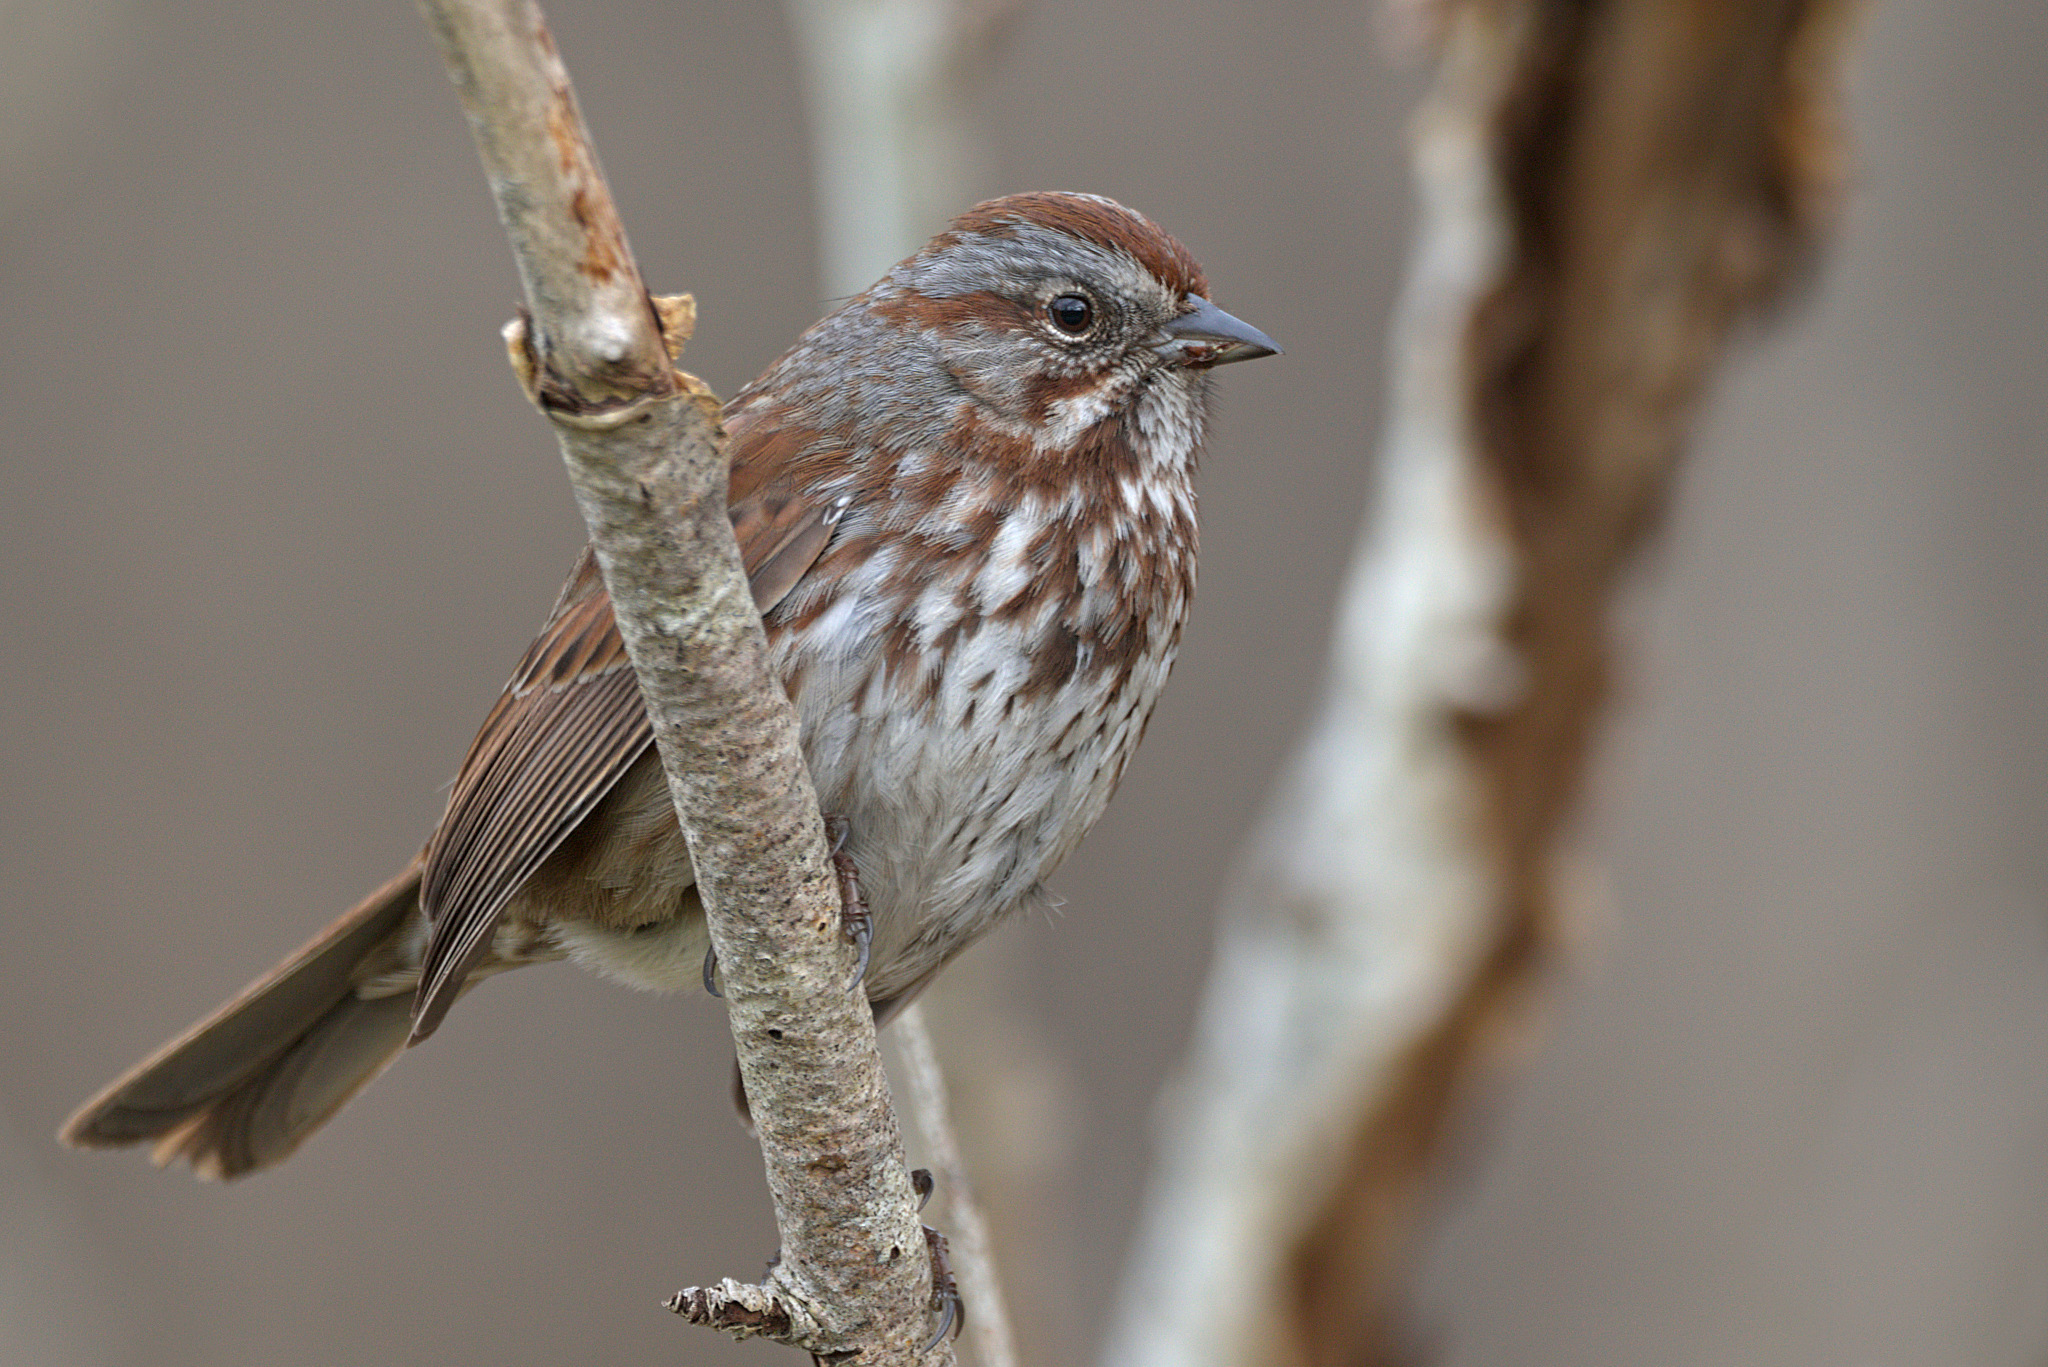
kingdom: Animalia
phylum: Chordata
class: Aves
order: Passeriformes
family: Passerellidae
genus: Melospiza
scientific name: Melospiza melodia
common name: Song sparrow
